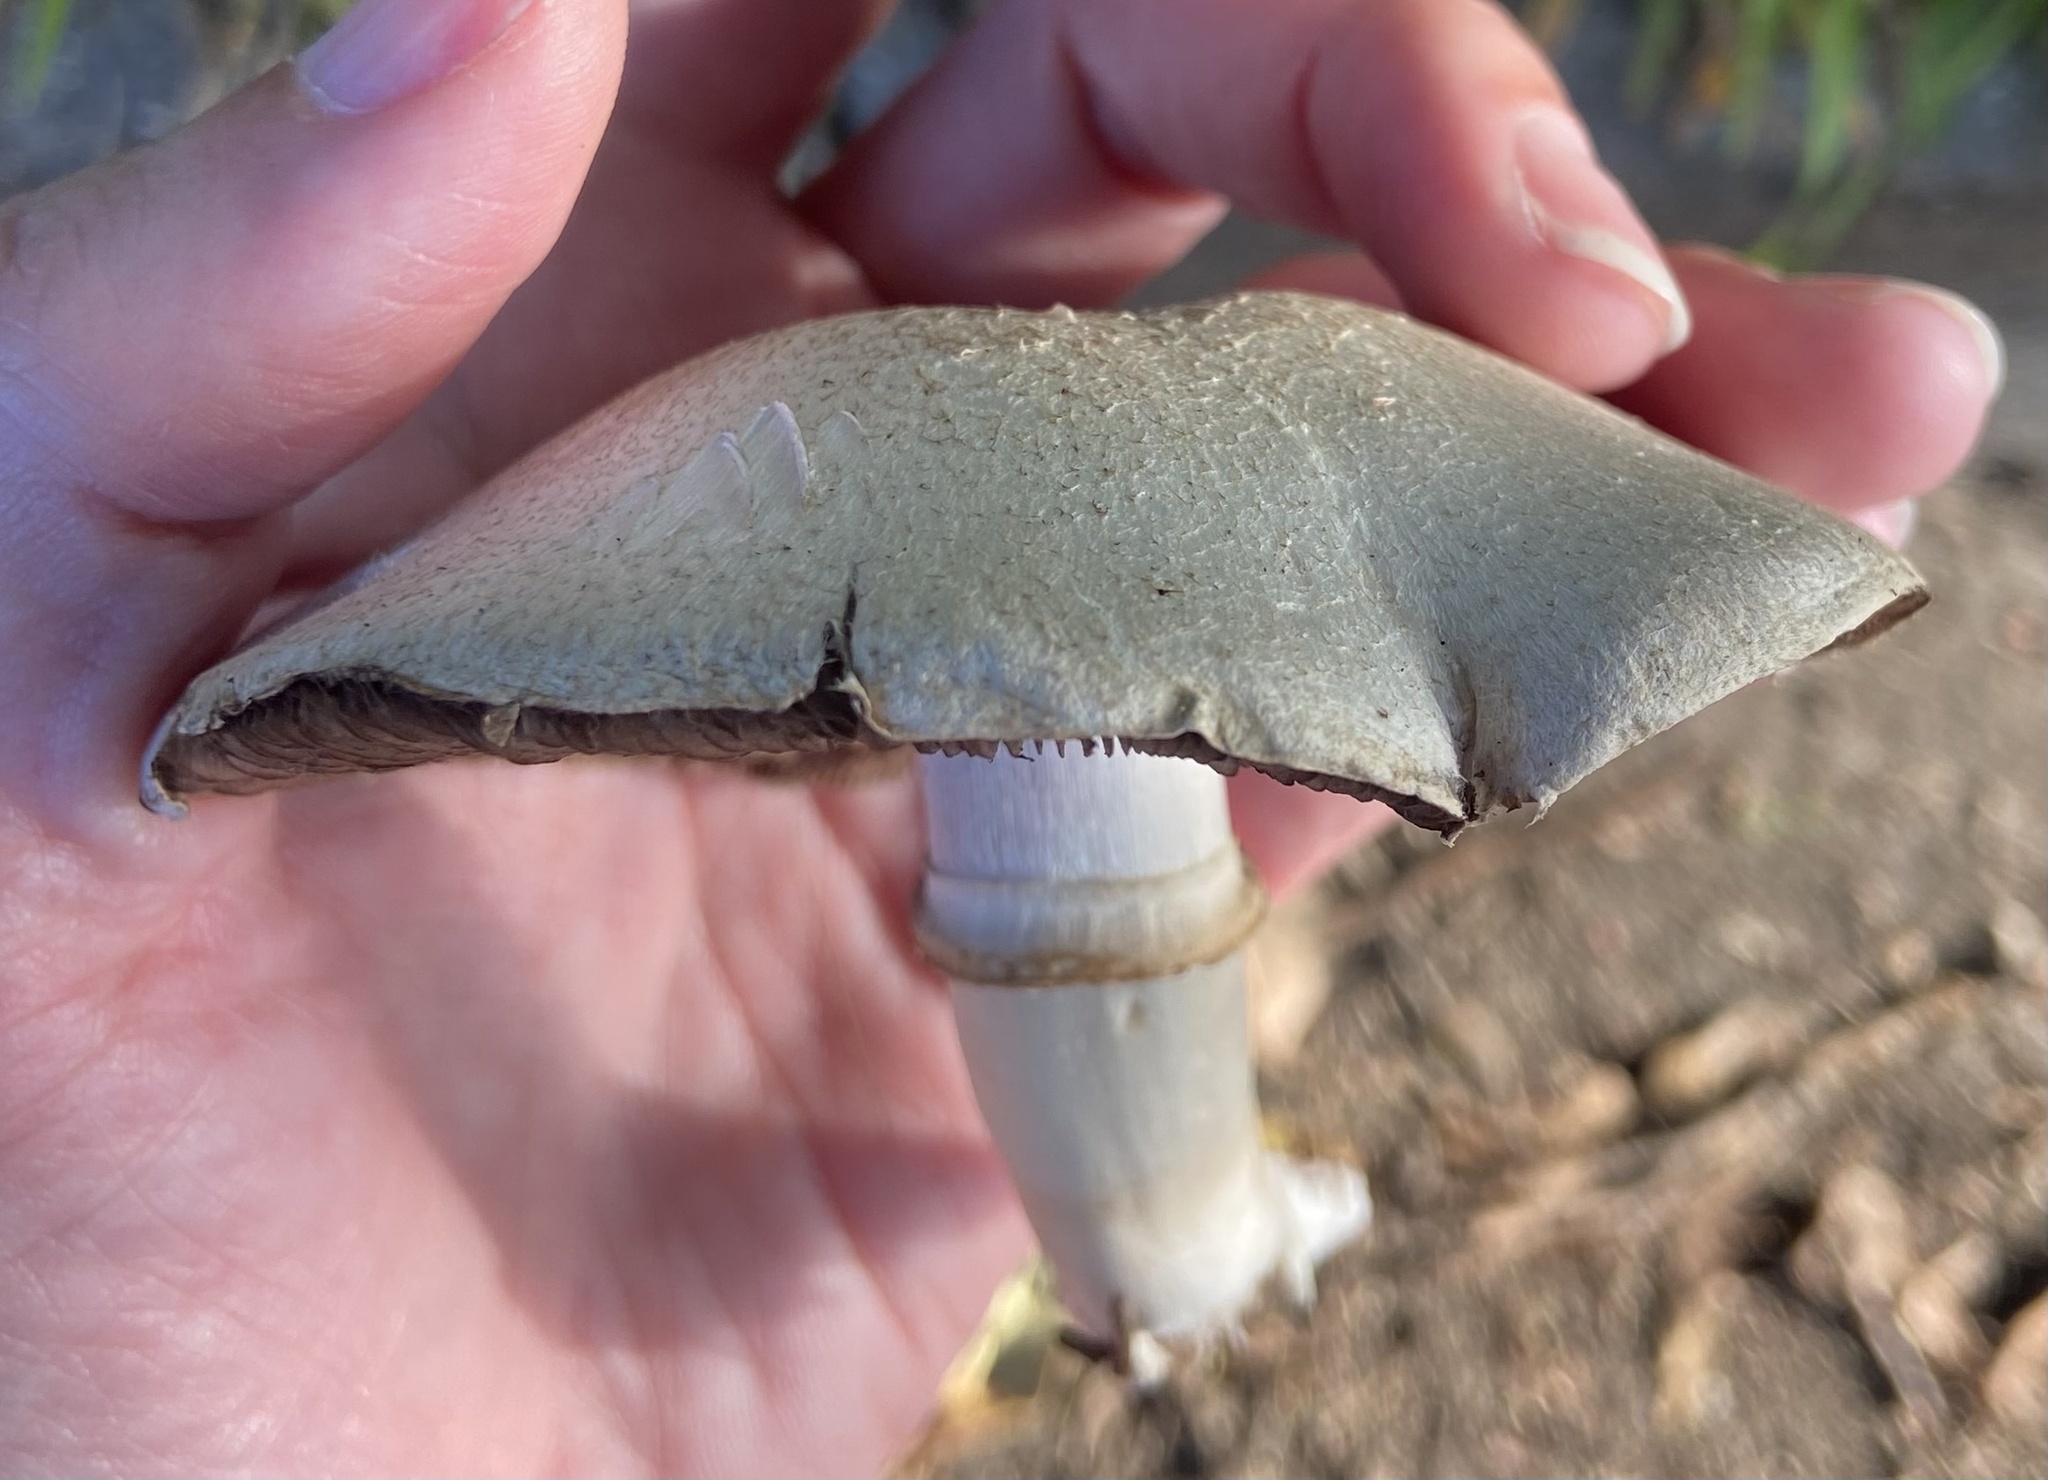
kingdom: Fungi
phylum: Basidiomycota
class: Agaricomycetes
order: Agaricales
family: Agaricaceae
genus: Agaricus
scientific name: Agaricus californicus
